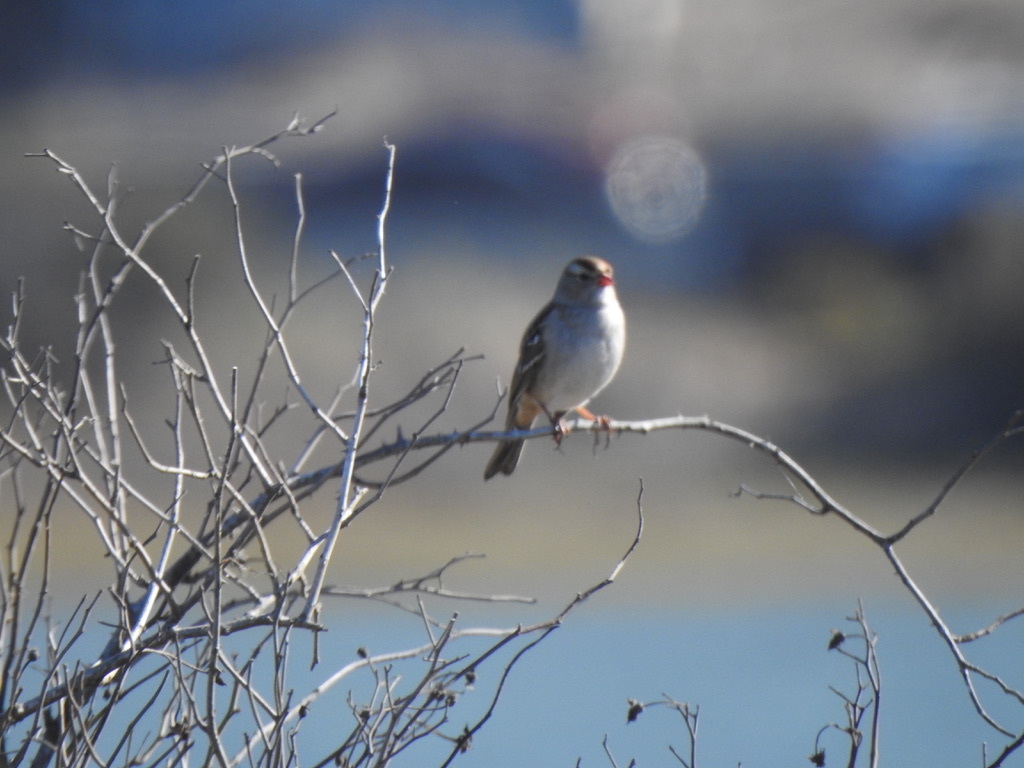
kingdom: Animalia
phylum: Chordata
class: Aves
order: Passeriformes
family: Passerellidae
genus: Zonotrichia
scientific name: Zonotrichia leucophrys
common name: White-crowned sparrow
